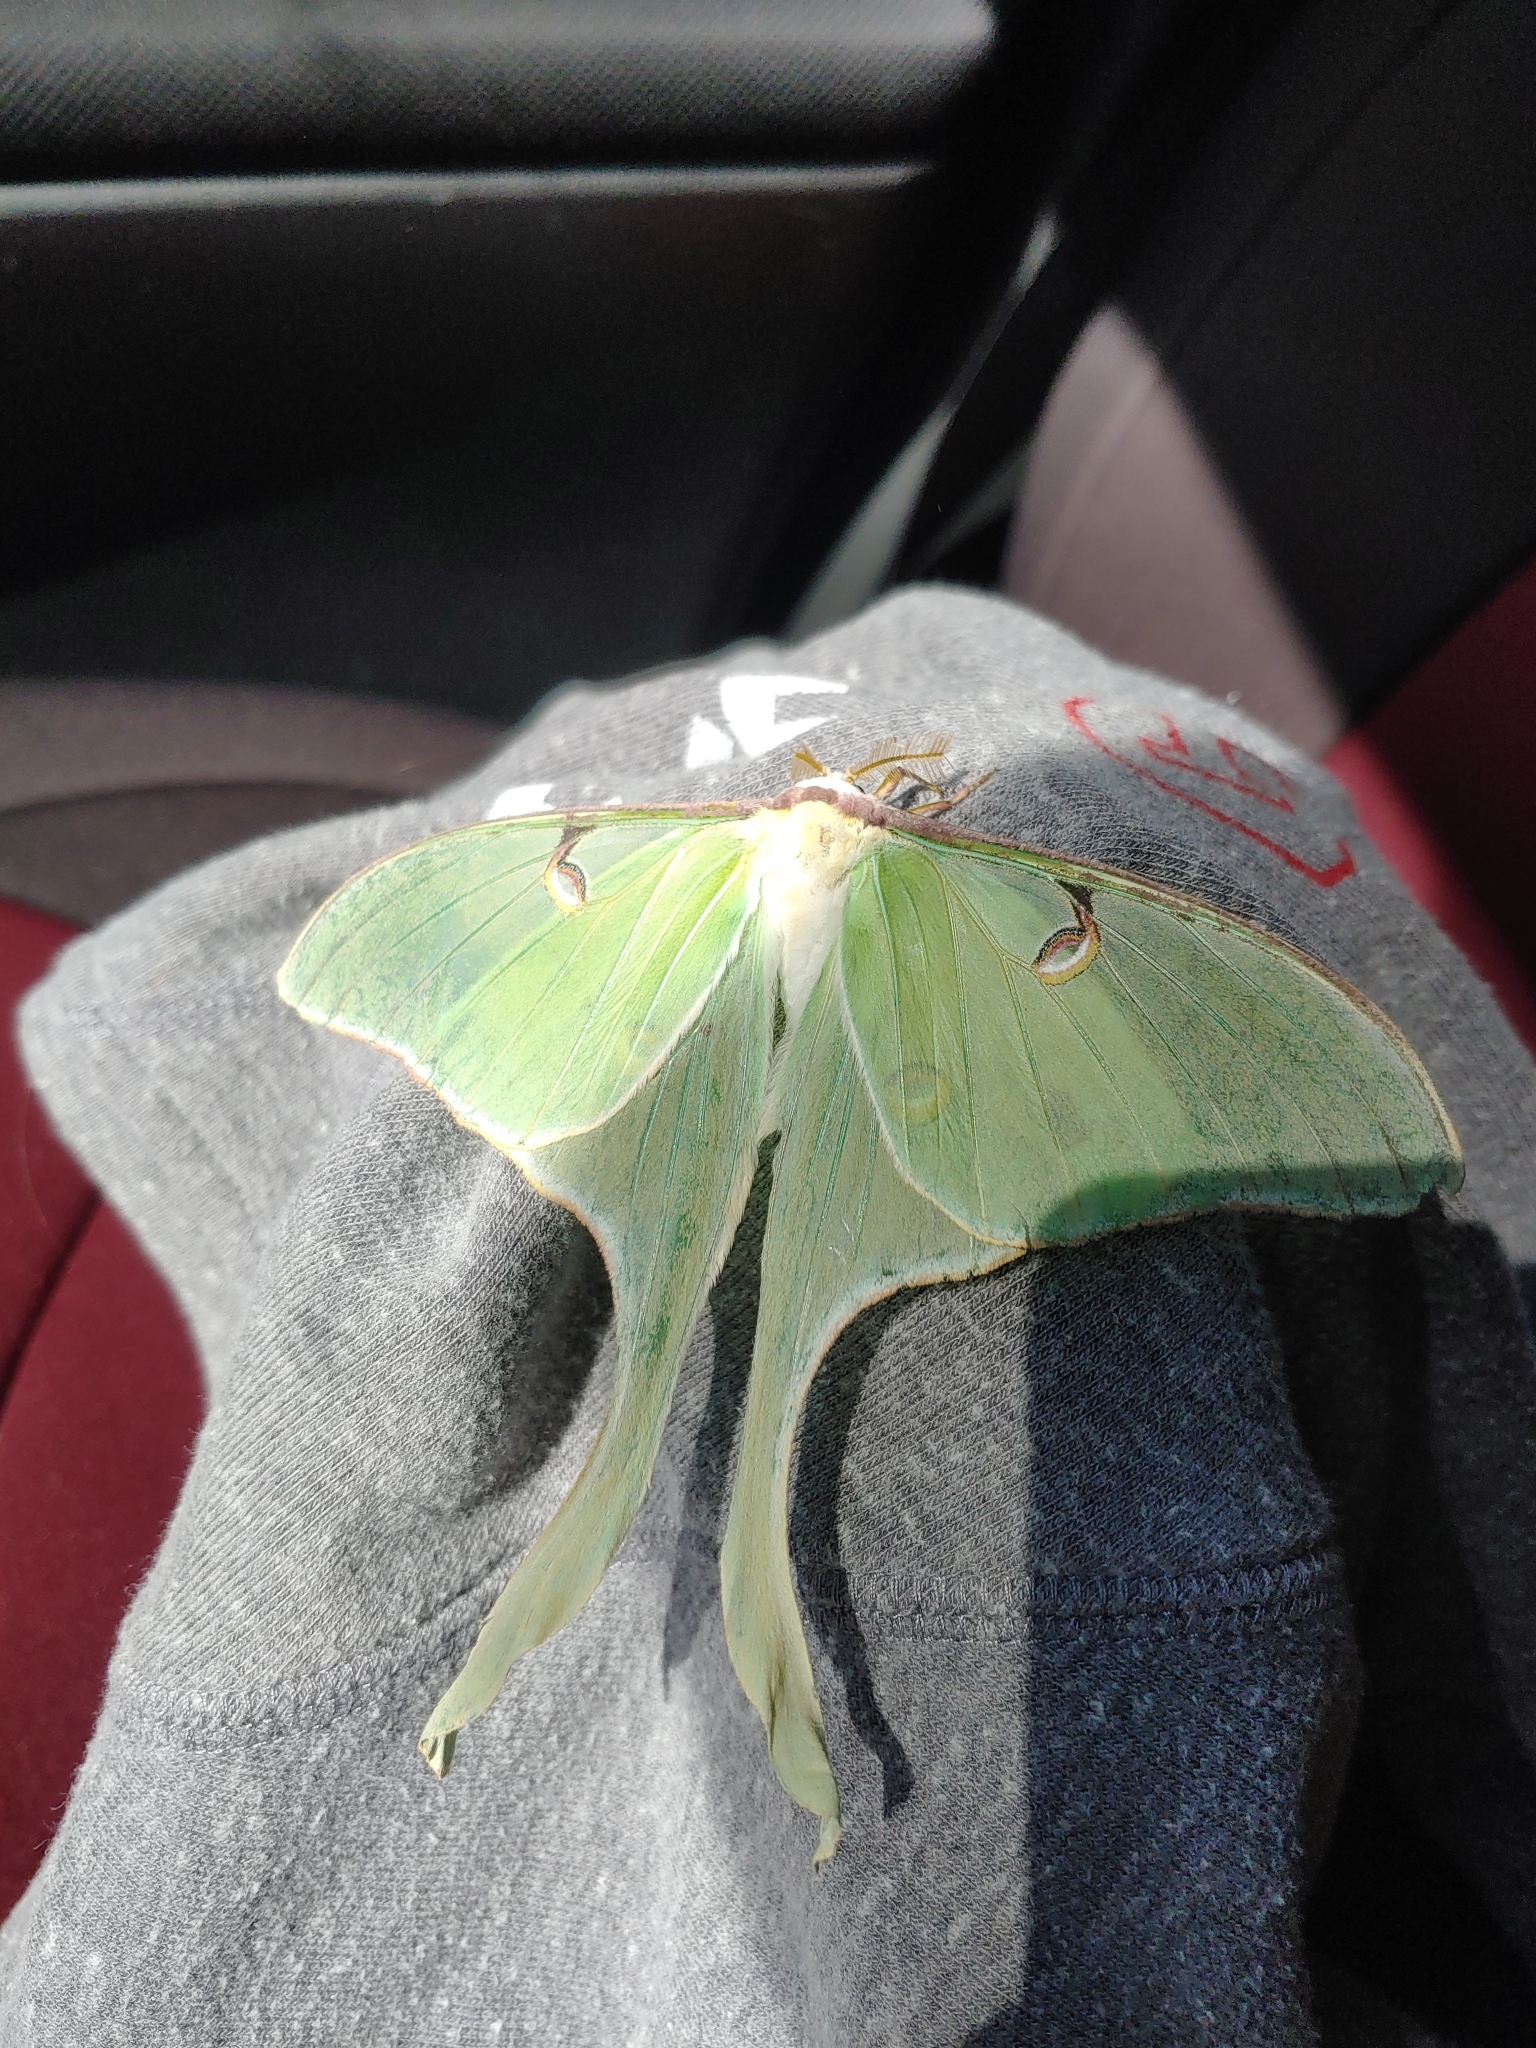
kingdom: Animalia
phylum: Arthropoda
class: Insecta
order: Lepidoptera
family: Saturniidae
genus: Actias
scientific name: Actias luna
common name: Luna moth
